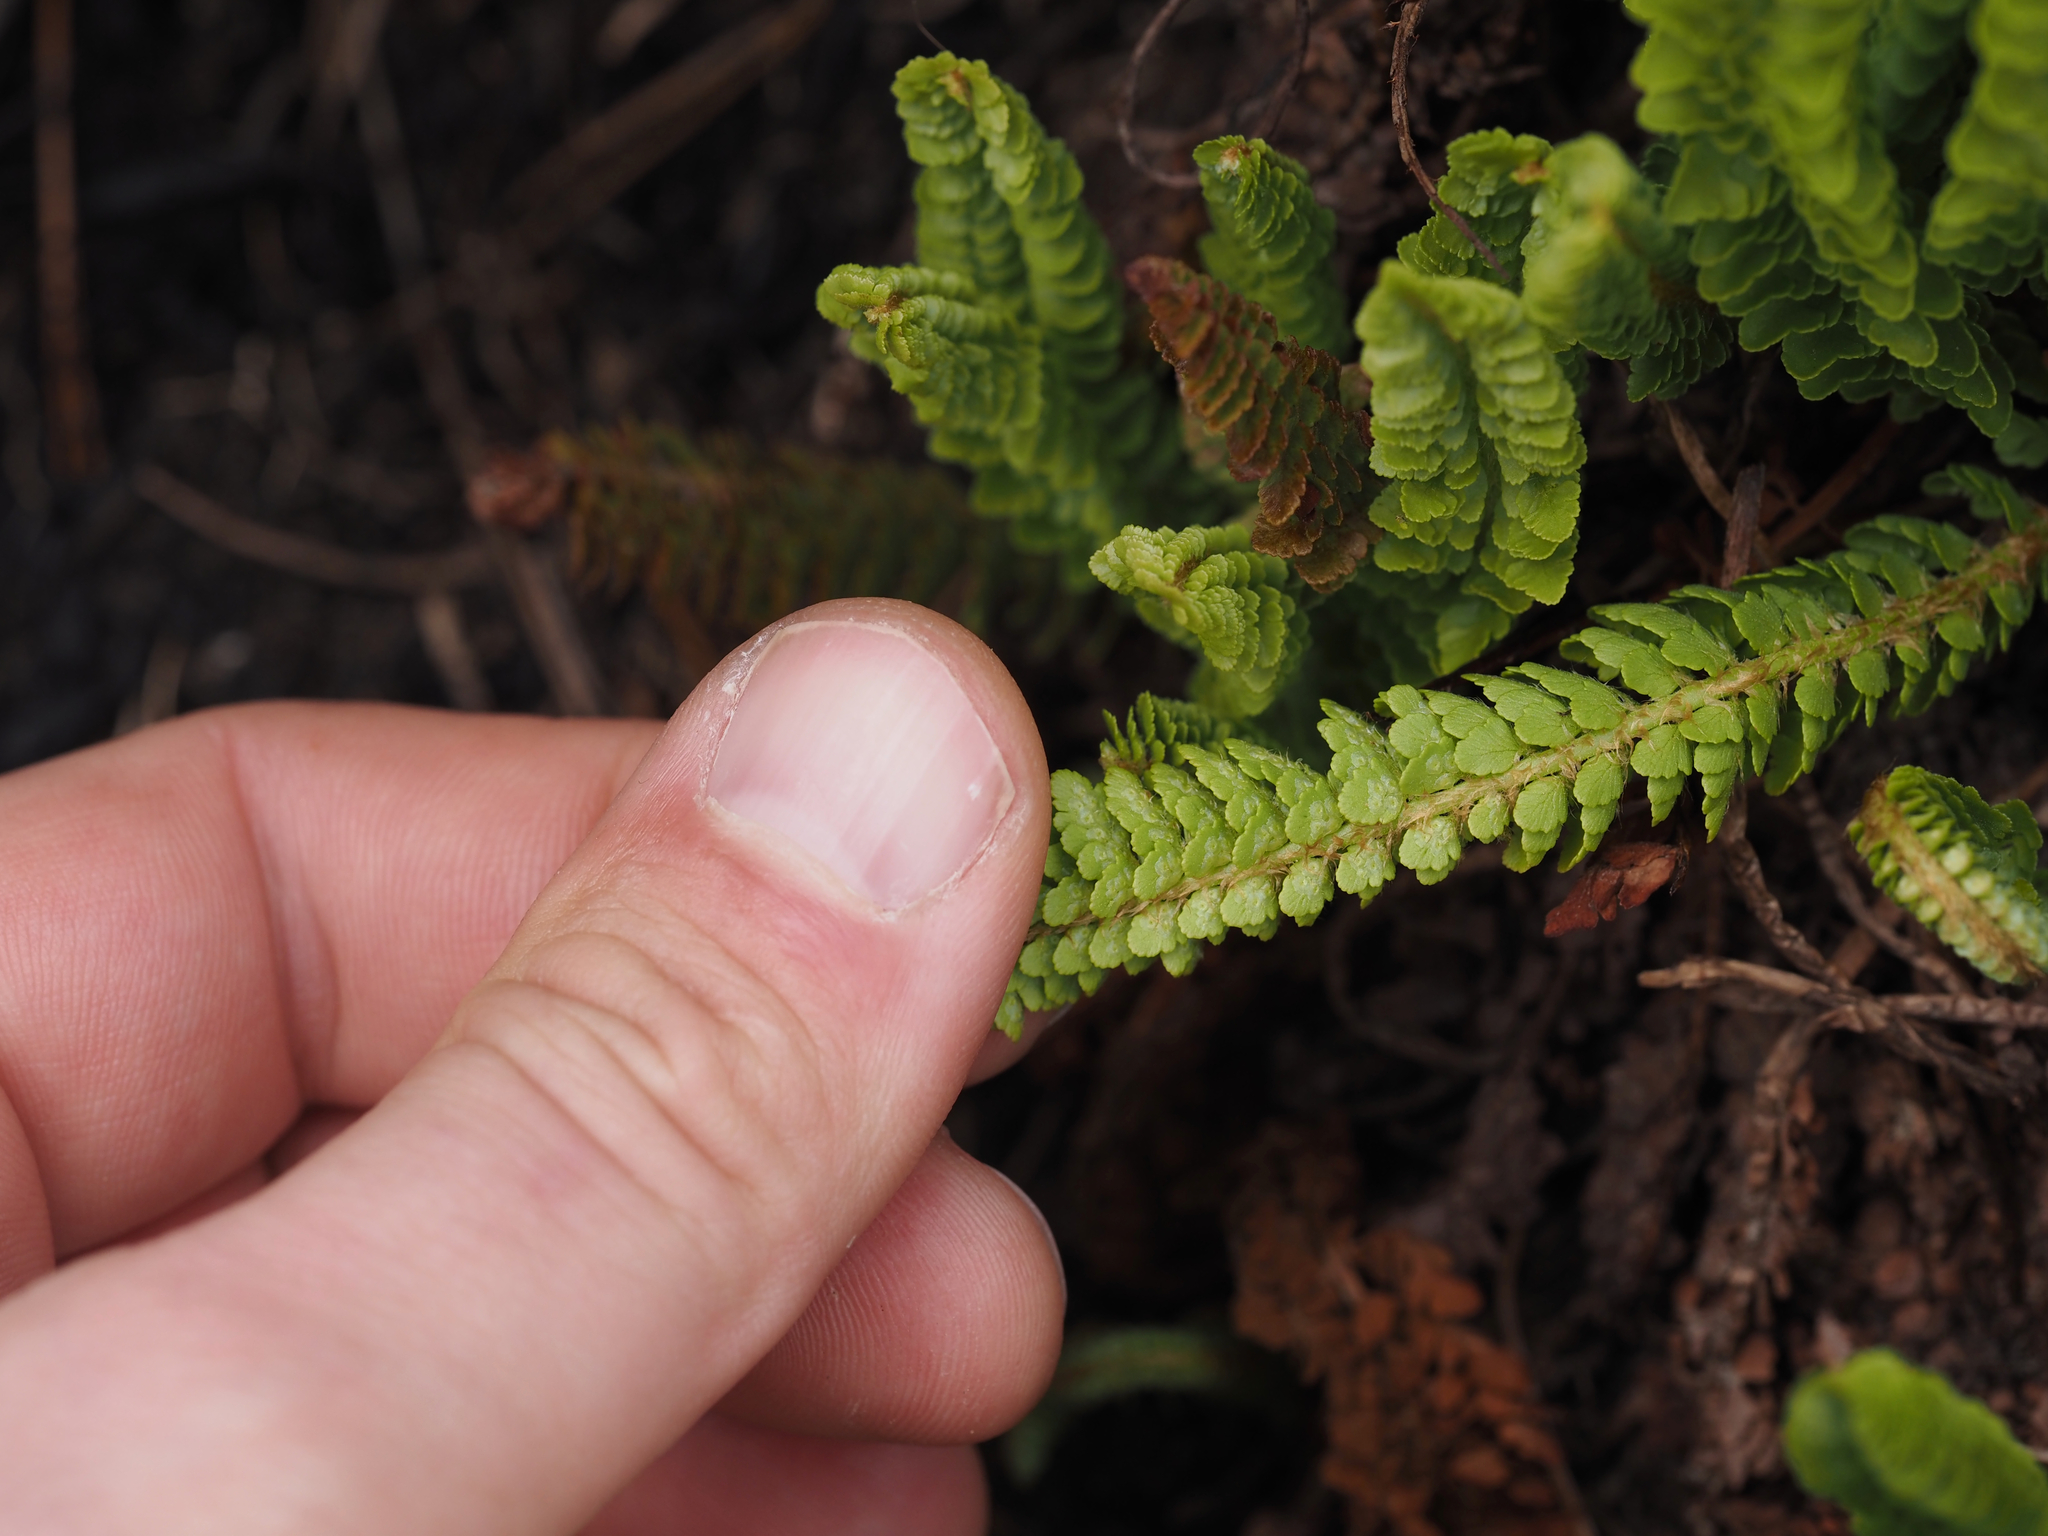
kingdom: Plantae
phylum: Tracheophyta
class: Polypodiopsida
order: Polypodiales
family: Dryopteridaceae
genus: Polystichum
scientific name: Polystichum lemmonii
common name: Lemmon's holly fern
